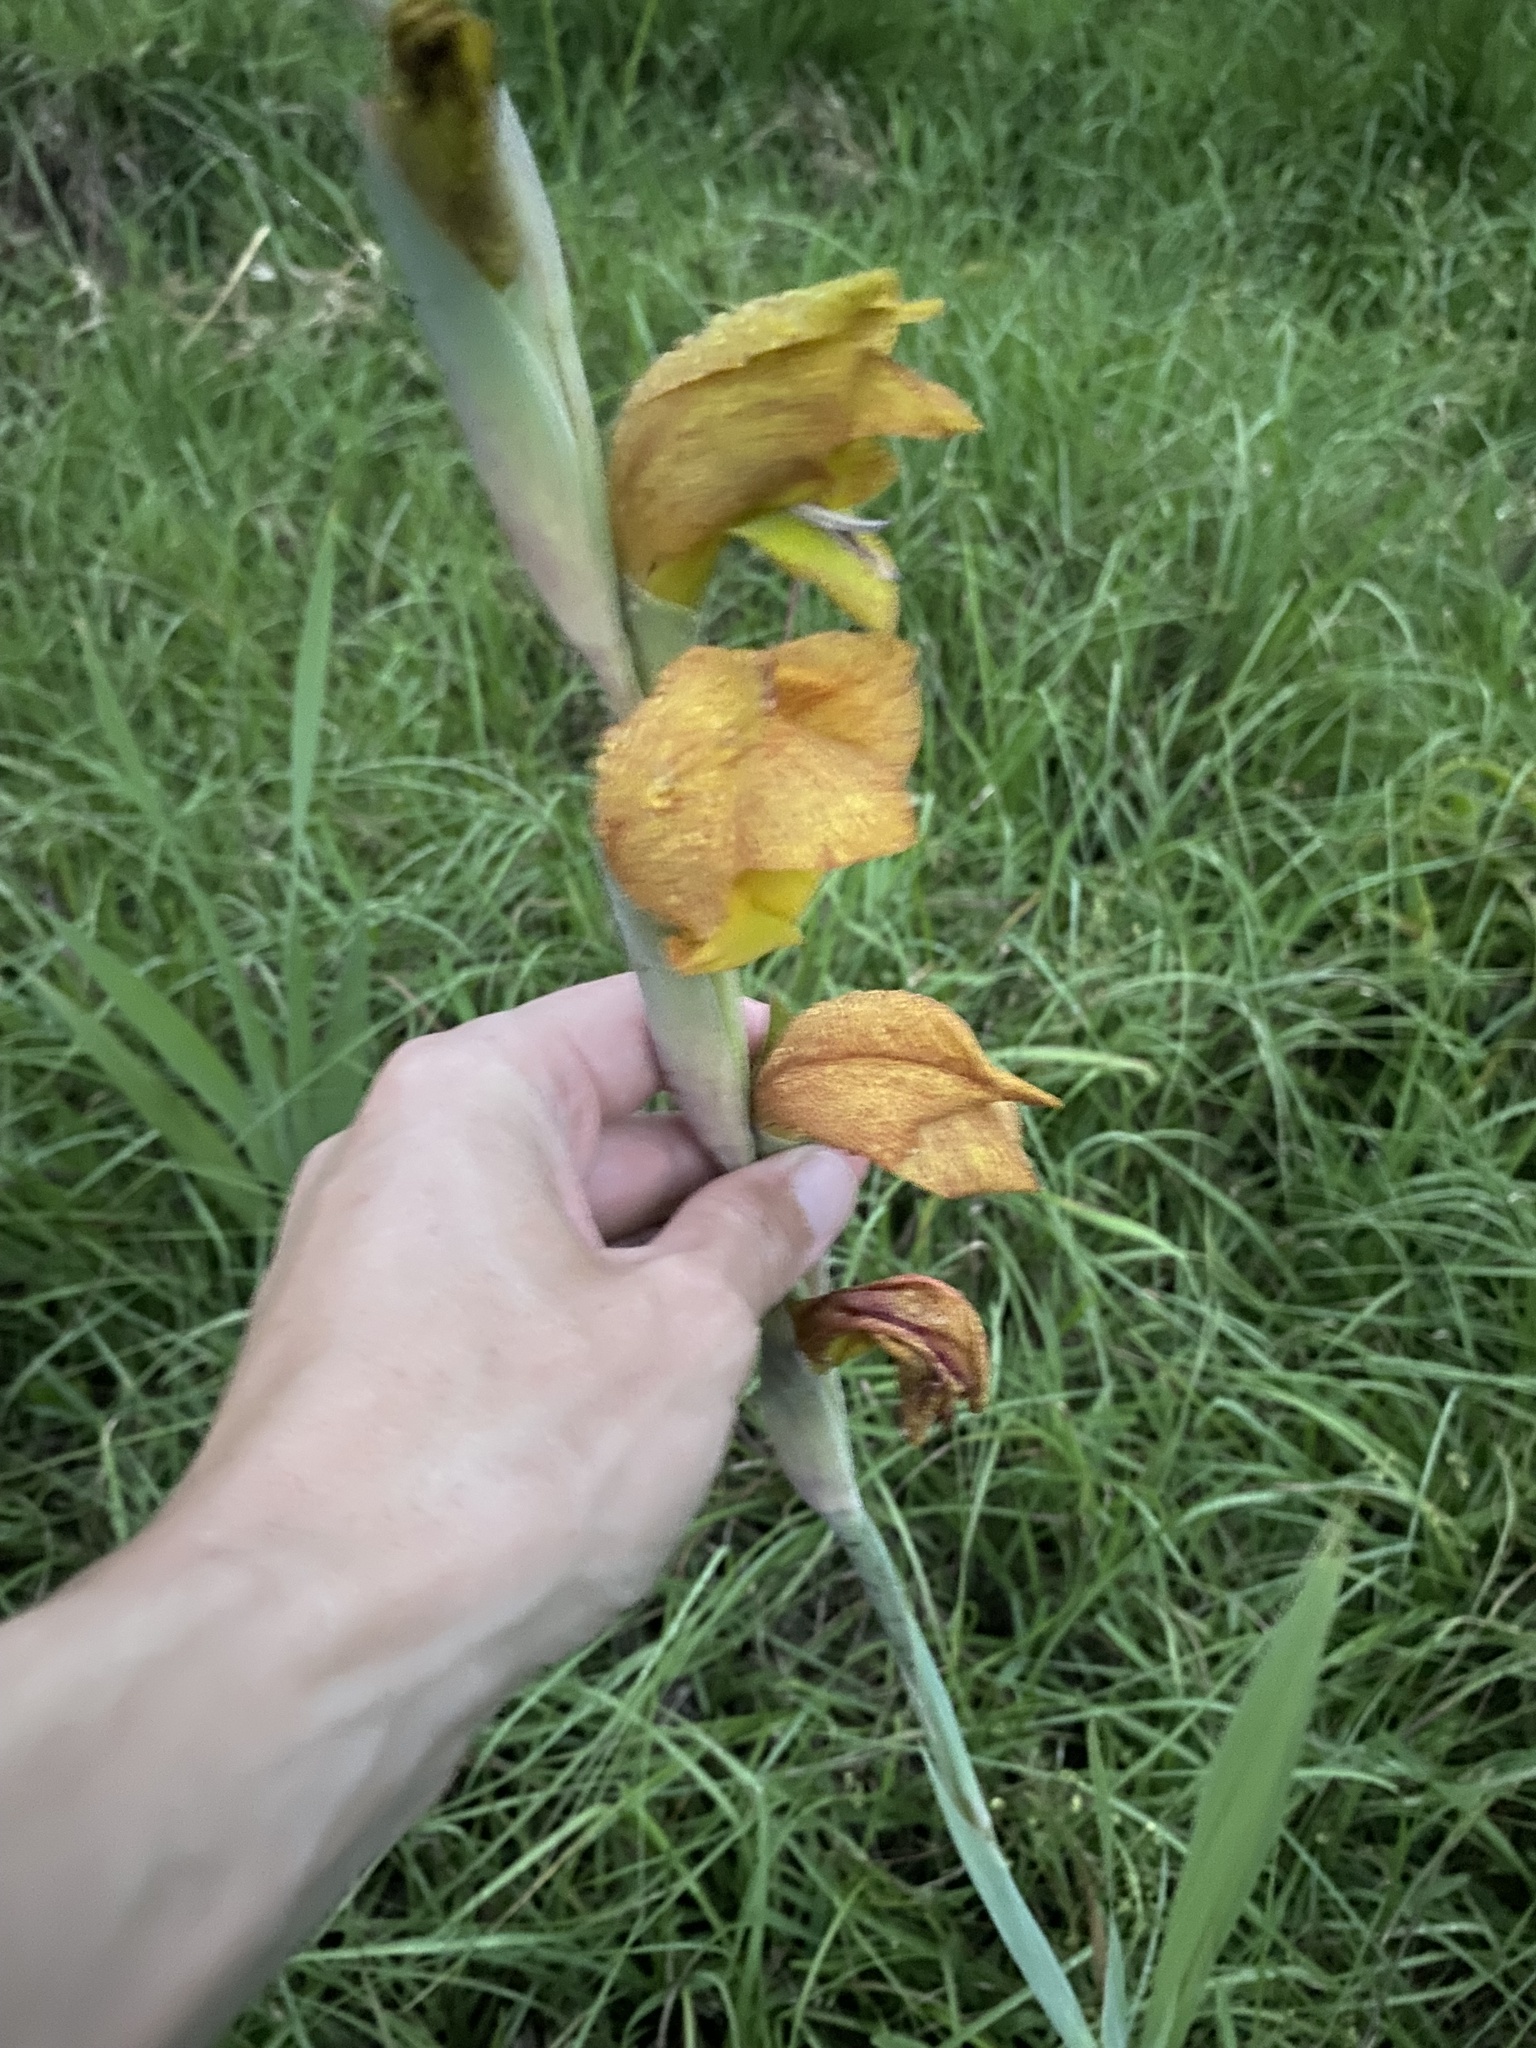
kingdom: Plantae
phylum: Tracheophyta
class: Liliopsida
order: Asparagales
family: Iridaceae
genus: Gladiolus
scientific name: Gladiolus dalenii
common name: Cornflag
